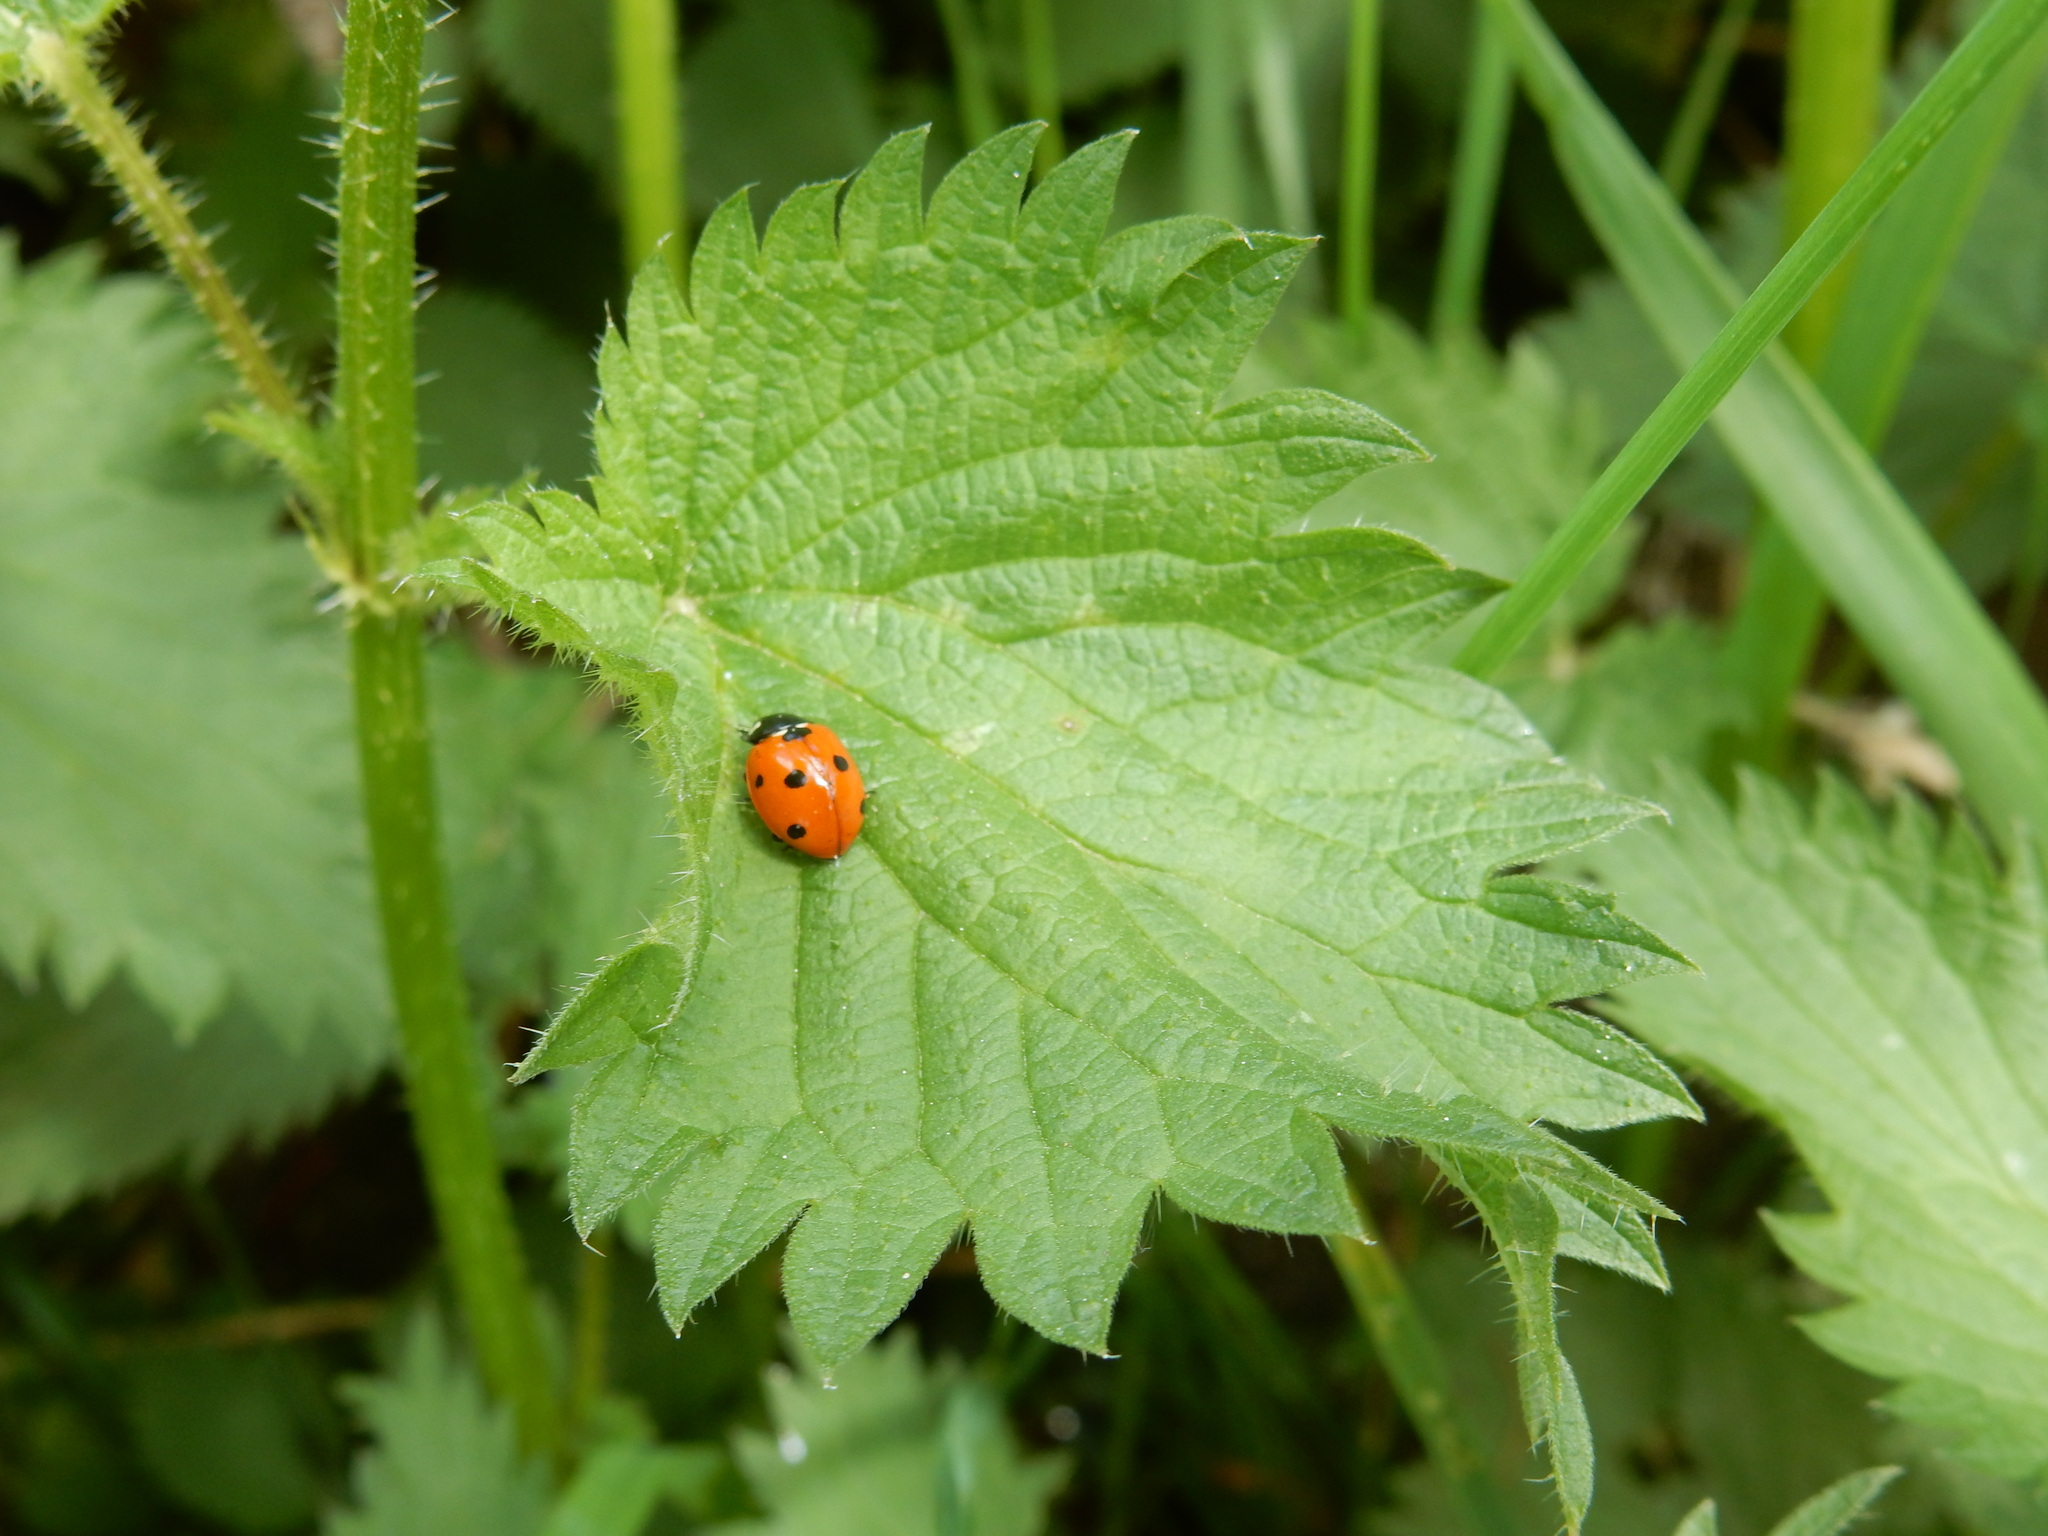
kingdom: Animalia
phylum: Arthropoda
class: Insecta
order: Coleoptera
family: Coccinellidae
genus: Coccinella
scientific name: Coccinella septempunctata
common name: Sevenspotted lady beetle
